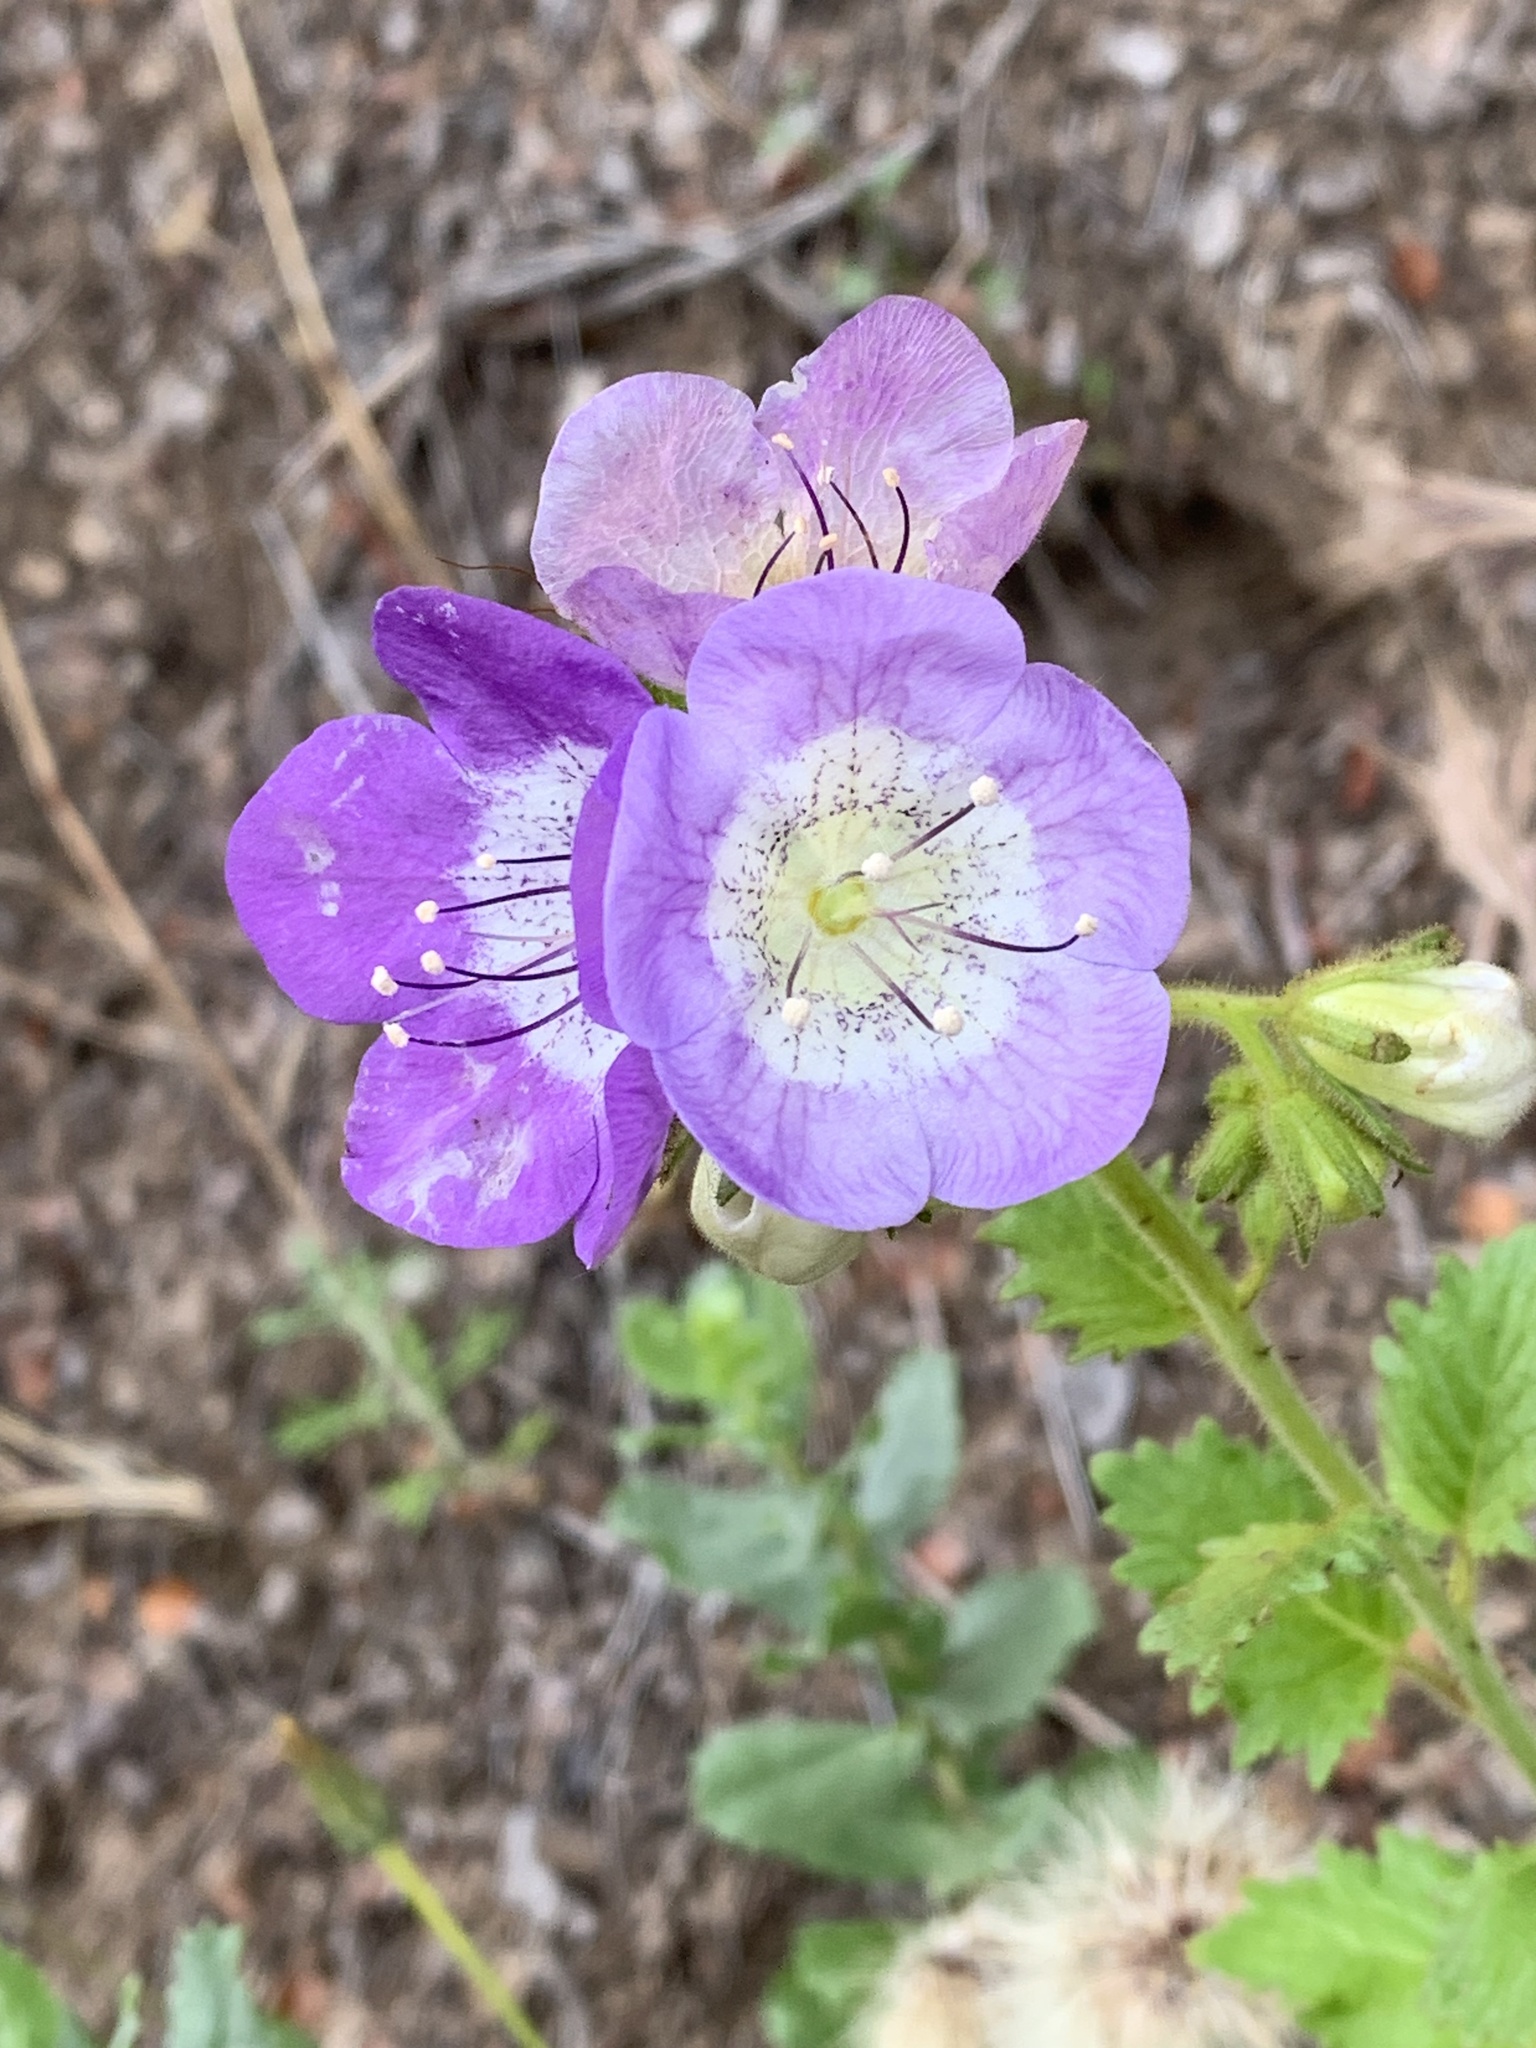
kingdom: Plantae
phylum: Tracheophyta
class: Magnoliopsida
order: Boraginales
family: Hydrophyllaceae
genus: Phacelia
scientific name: Phacelia grandiflora
